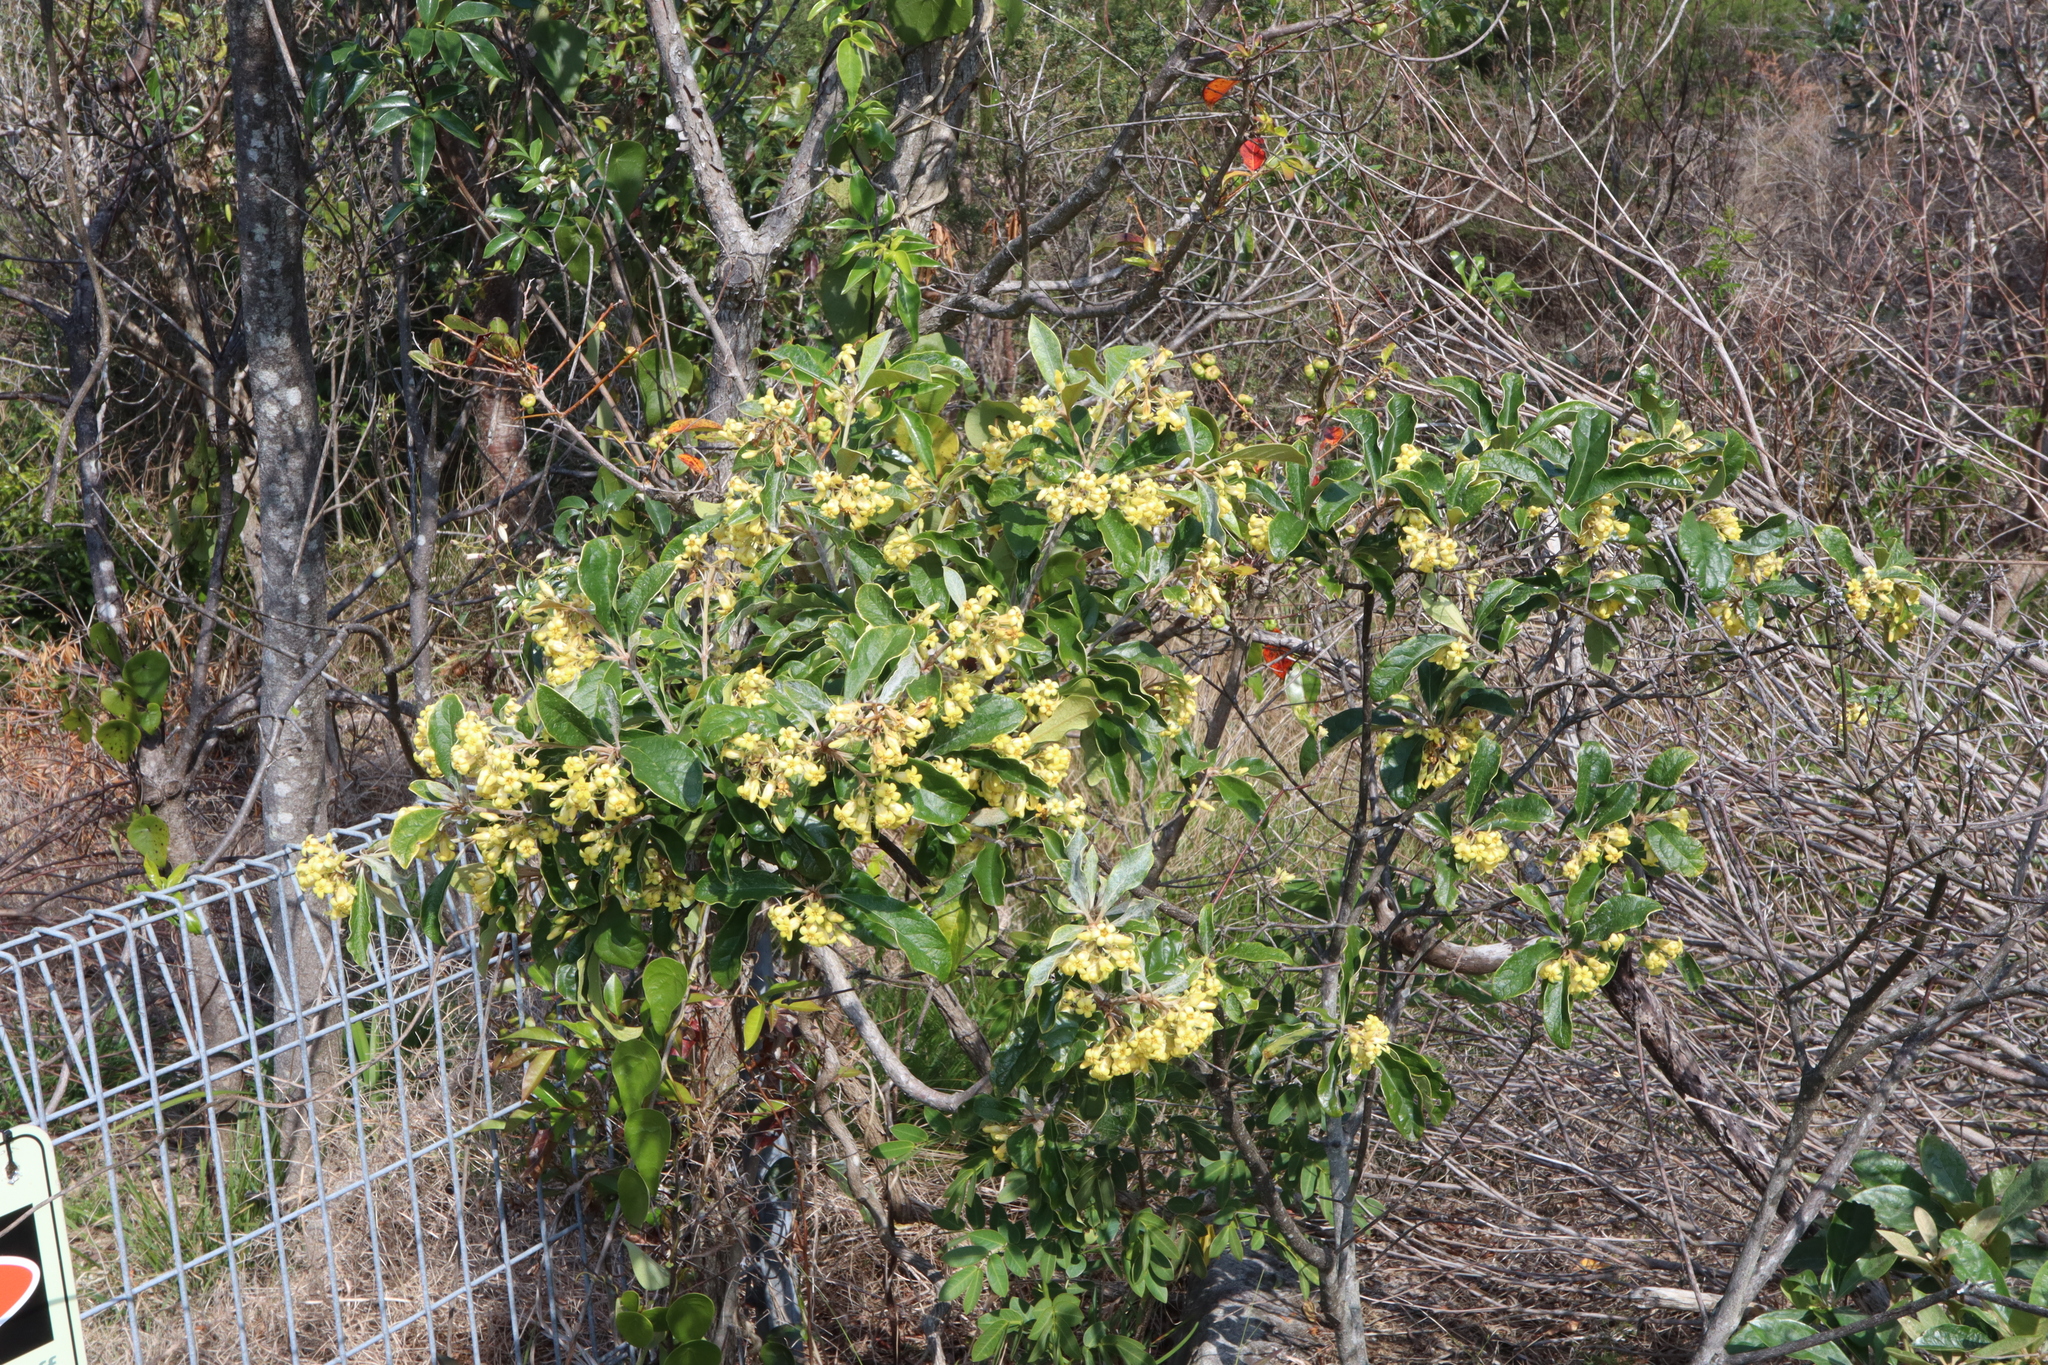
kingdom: Plantae
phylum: Tracheophyta
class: Magnoliopsida
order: Apiales
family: Pittosporaceae
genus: Pittosporum
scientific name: Pittosporum revolutum
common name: Brisbane-laurel
